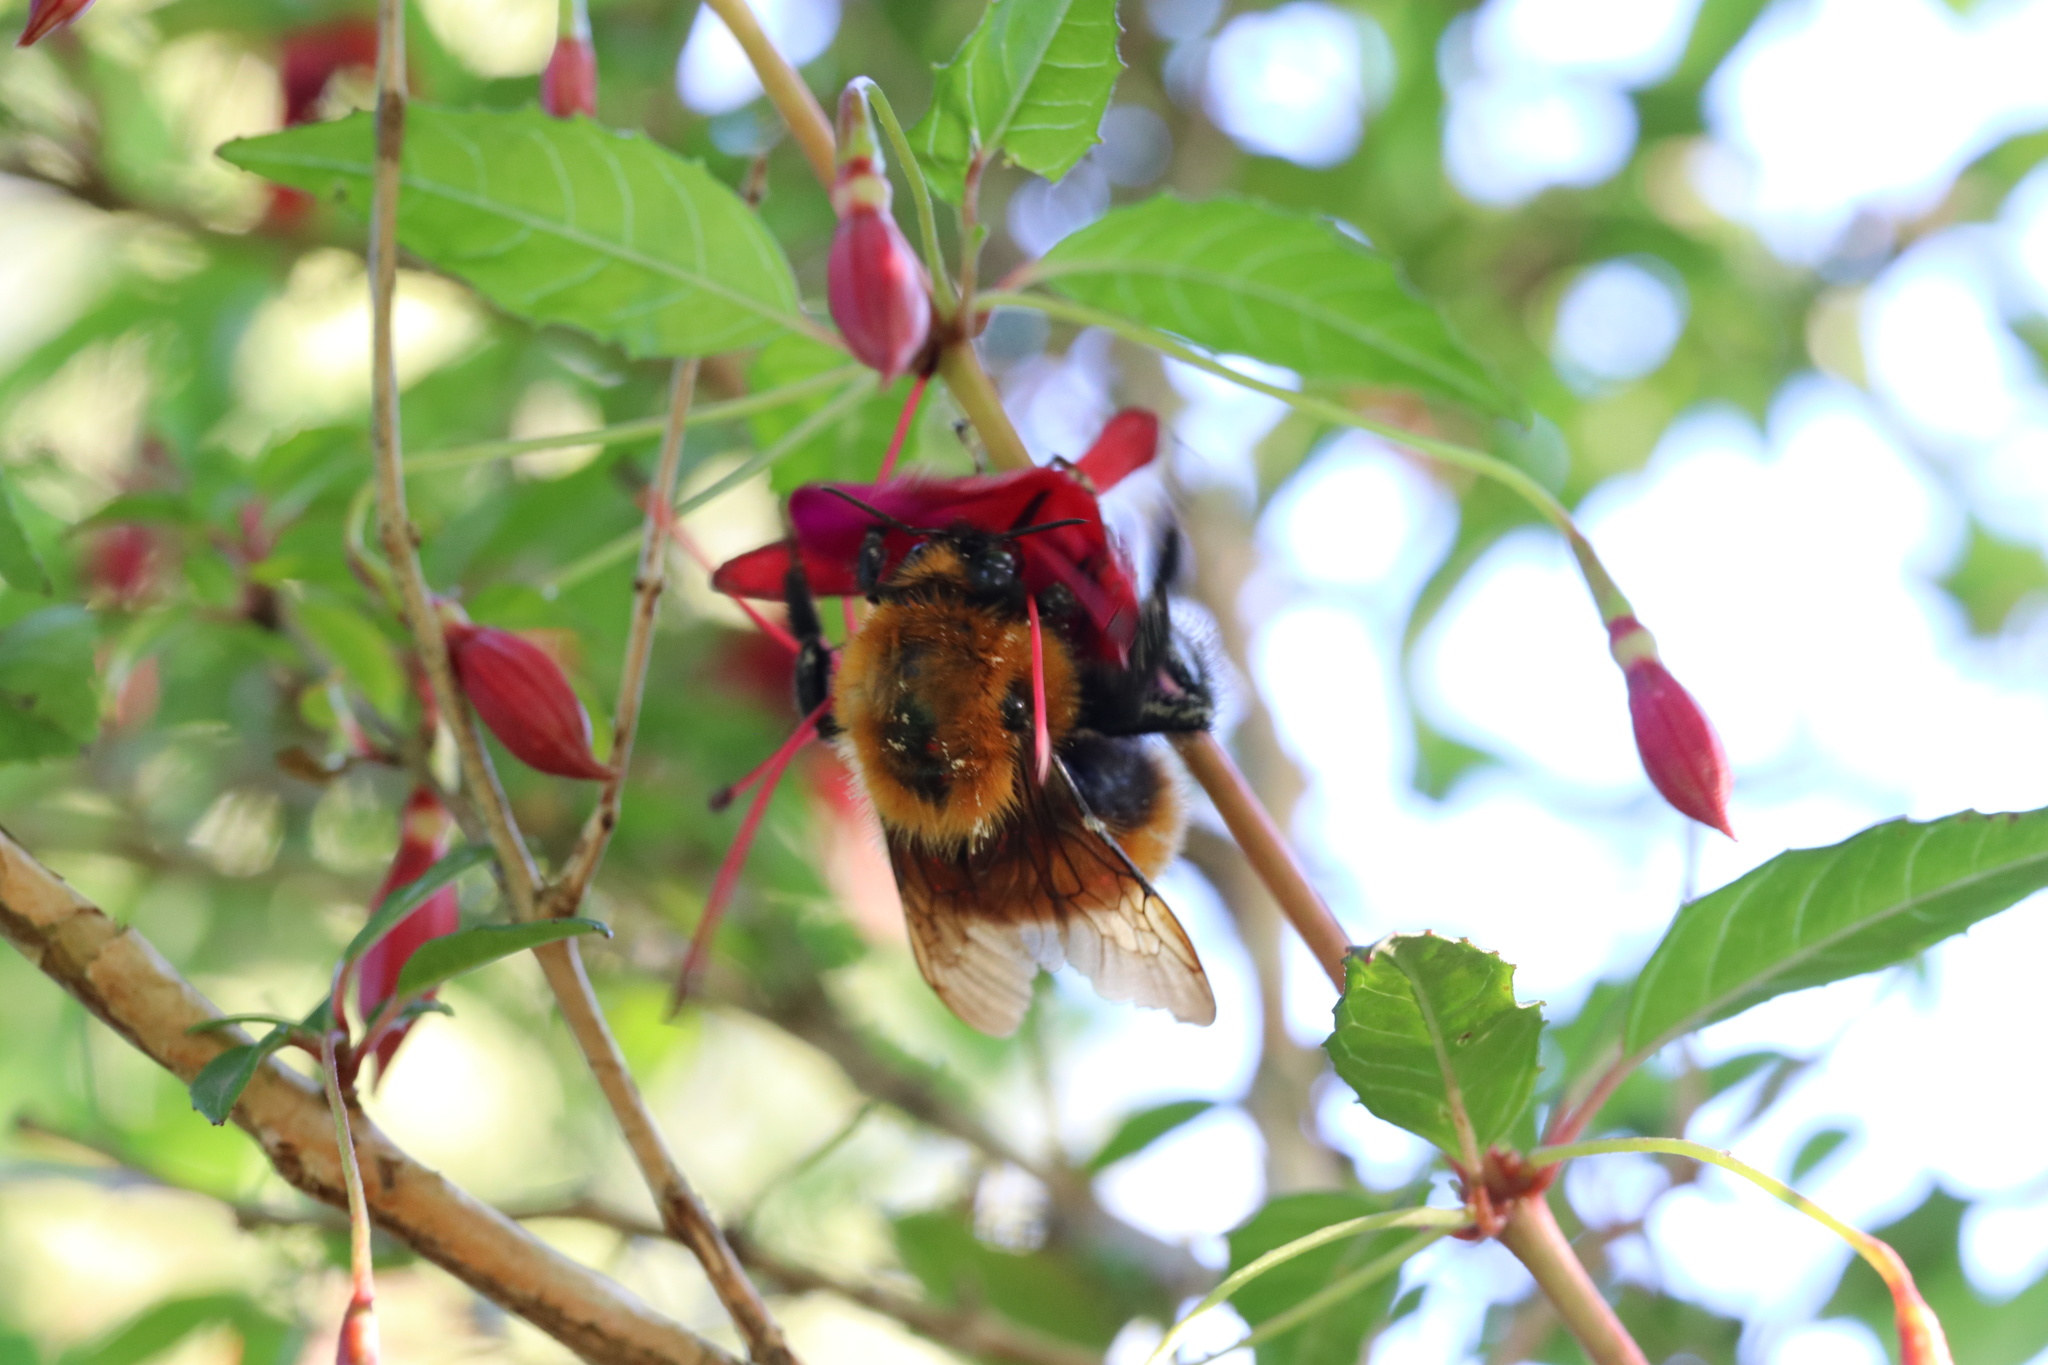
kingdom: Animalia
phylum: Arthropoda
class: Insecta
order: Hymenoptera
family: Apidae
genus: Bombus
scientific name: Bombus dahlbomii
